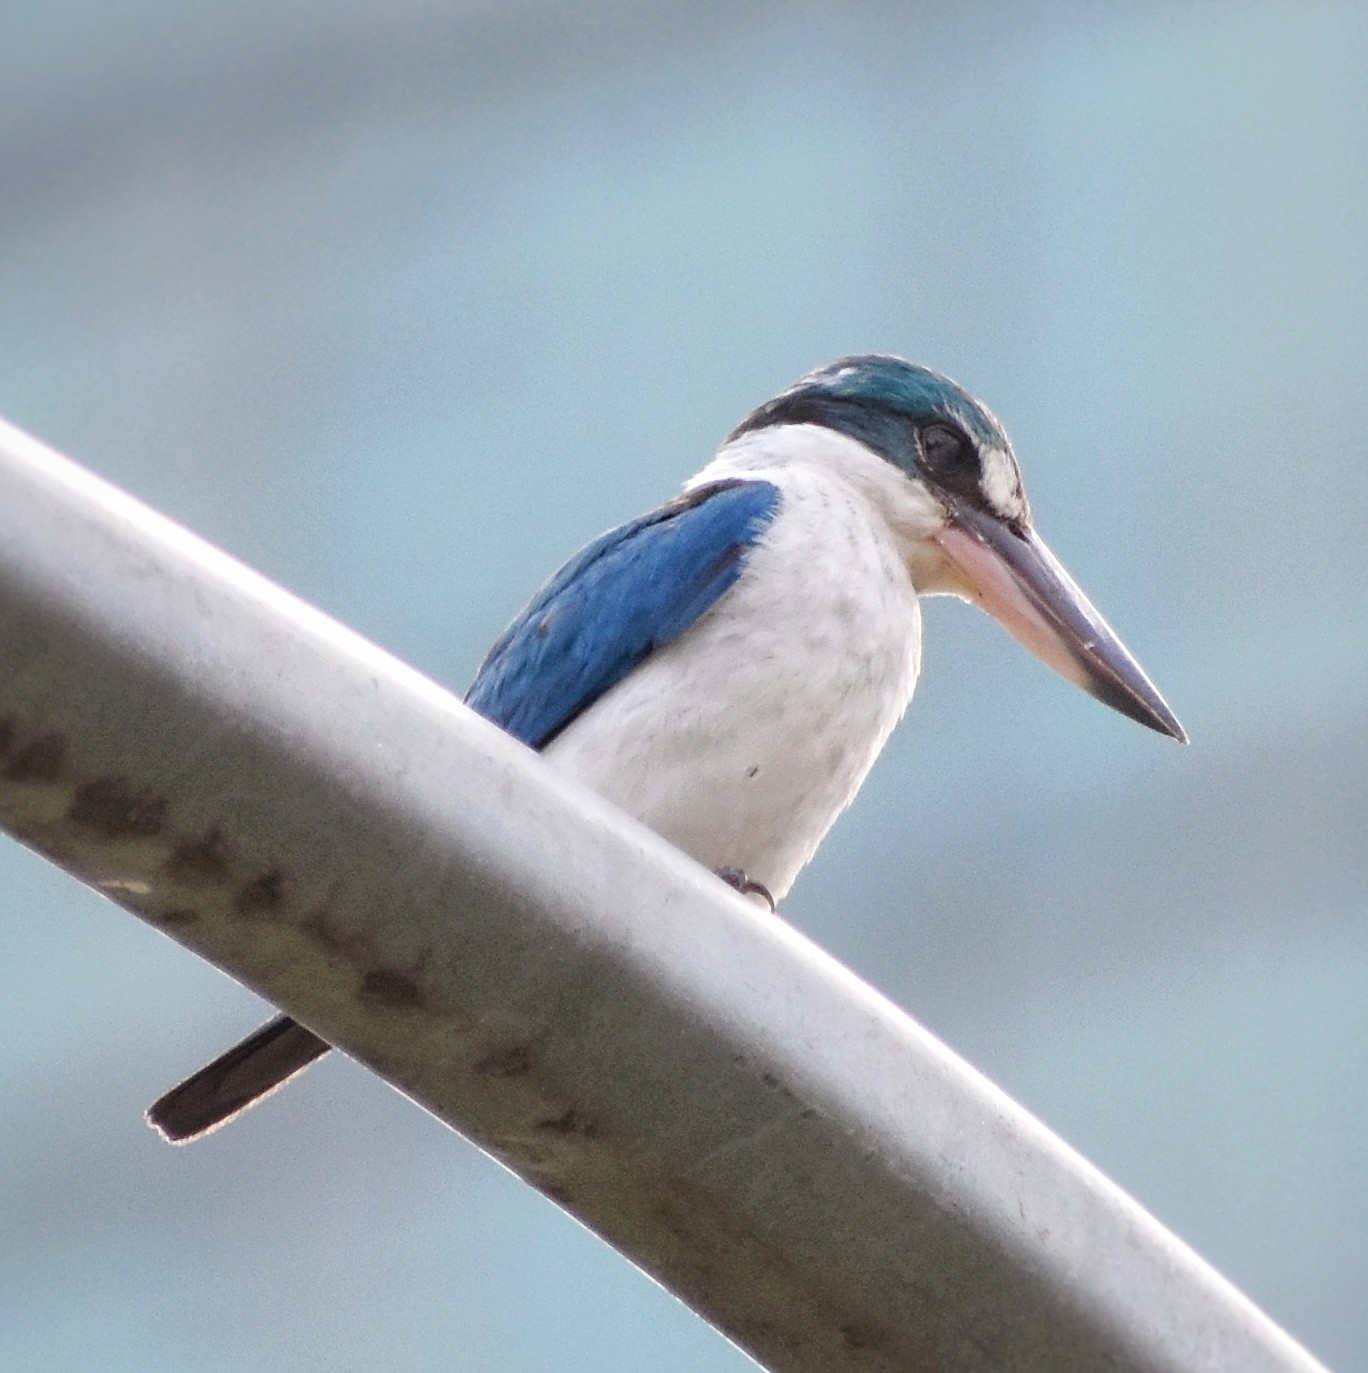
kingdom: Animalia
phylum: Chordata
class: Aves
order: Coraciiformes
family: Alcedinidae
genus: Todiramphus
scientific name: Todiramphus chloris
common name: Collared kingfisher
